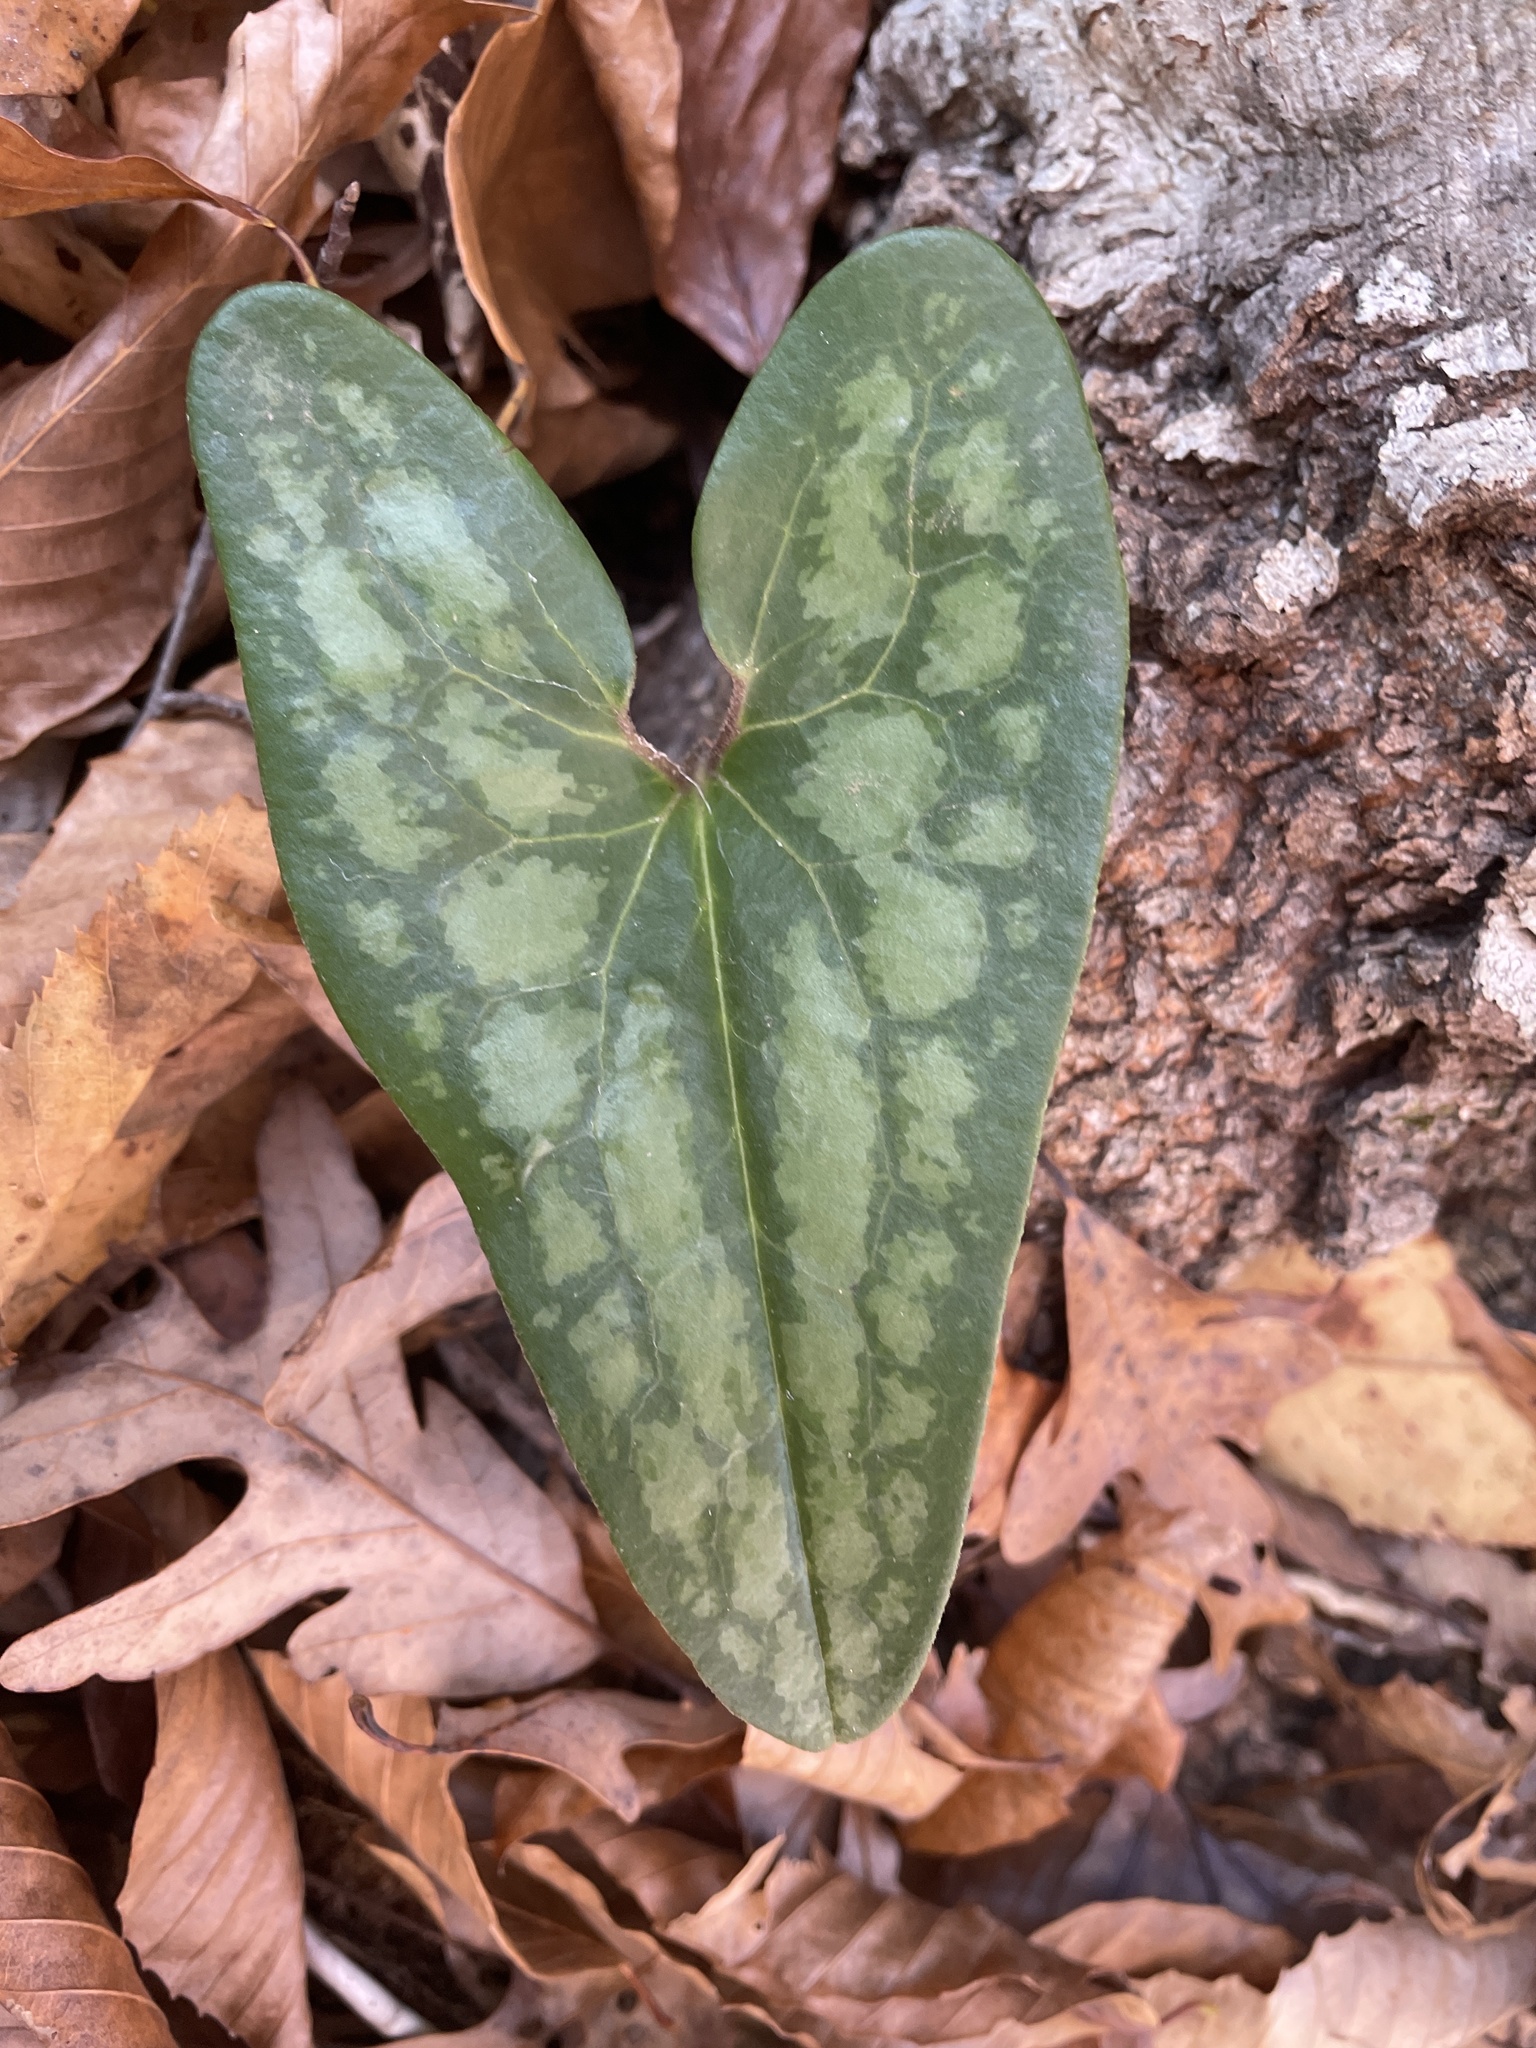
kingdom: Plantae
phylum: Tracheophyta
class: Magnoliopsida
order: Piperales
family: Aristolochiaceae
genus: Hexastylis
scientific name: Hexastylis arifolia
